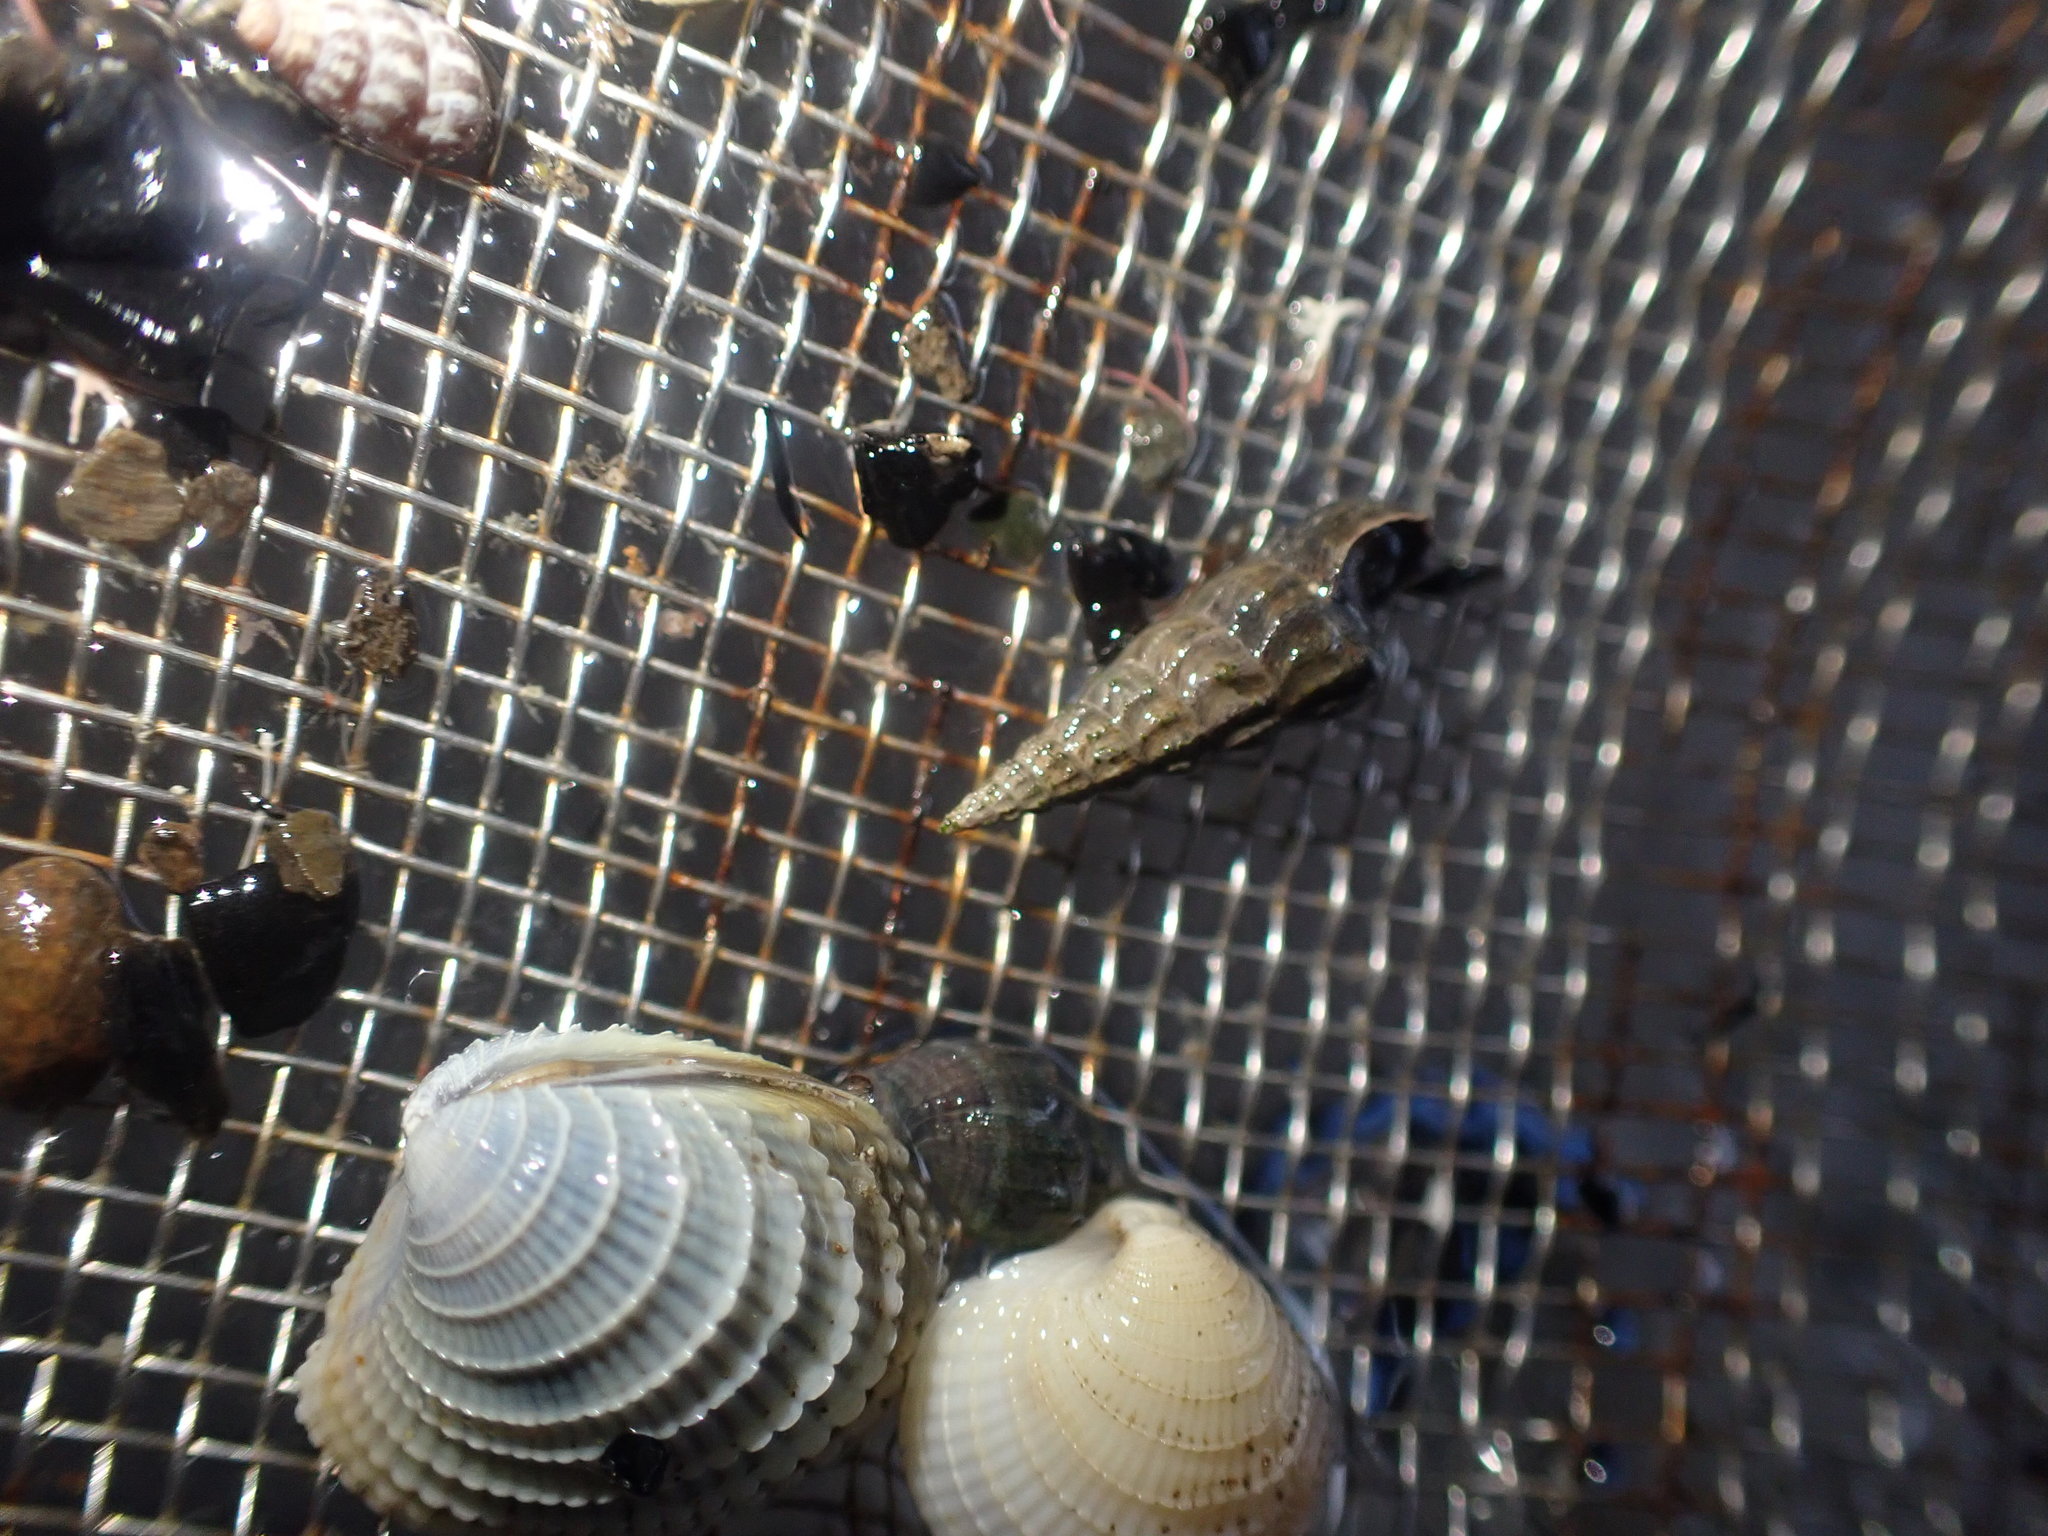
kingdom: Animalia
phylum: Mollusca
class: Gastropoda
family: Batillariidae
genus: Zeacumantus
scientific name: Zeacumantus lutulentus
